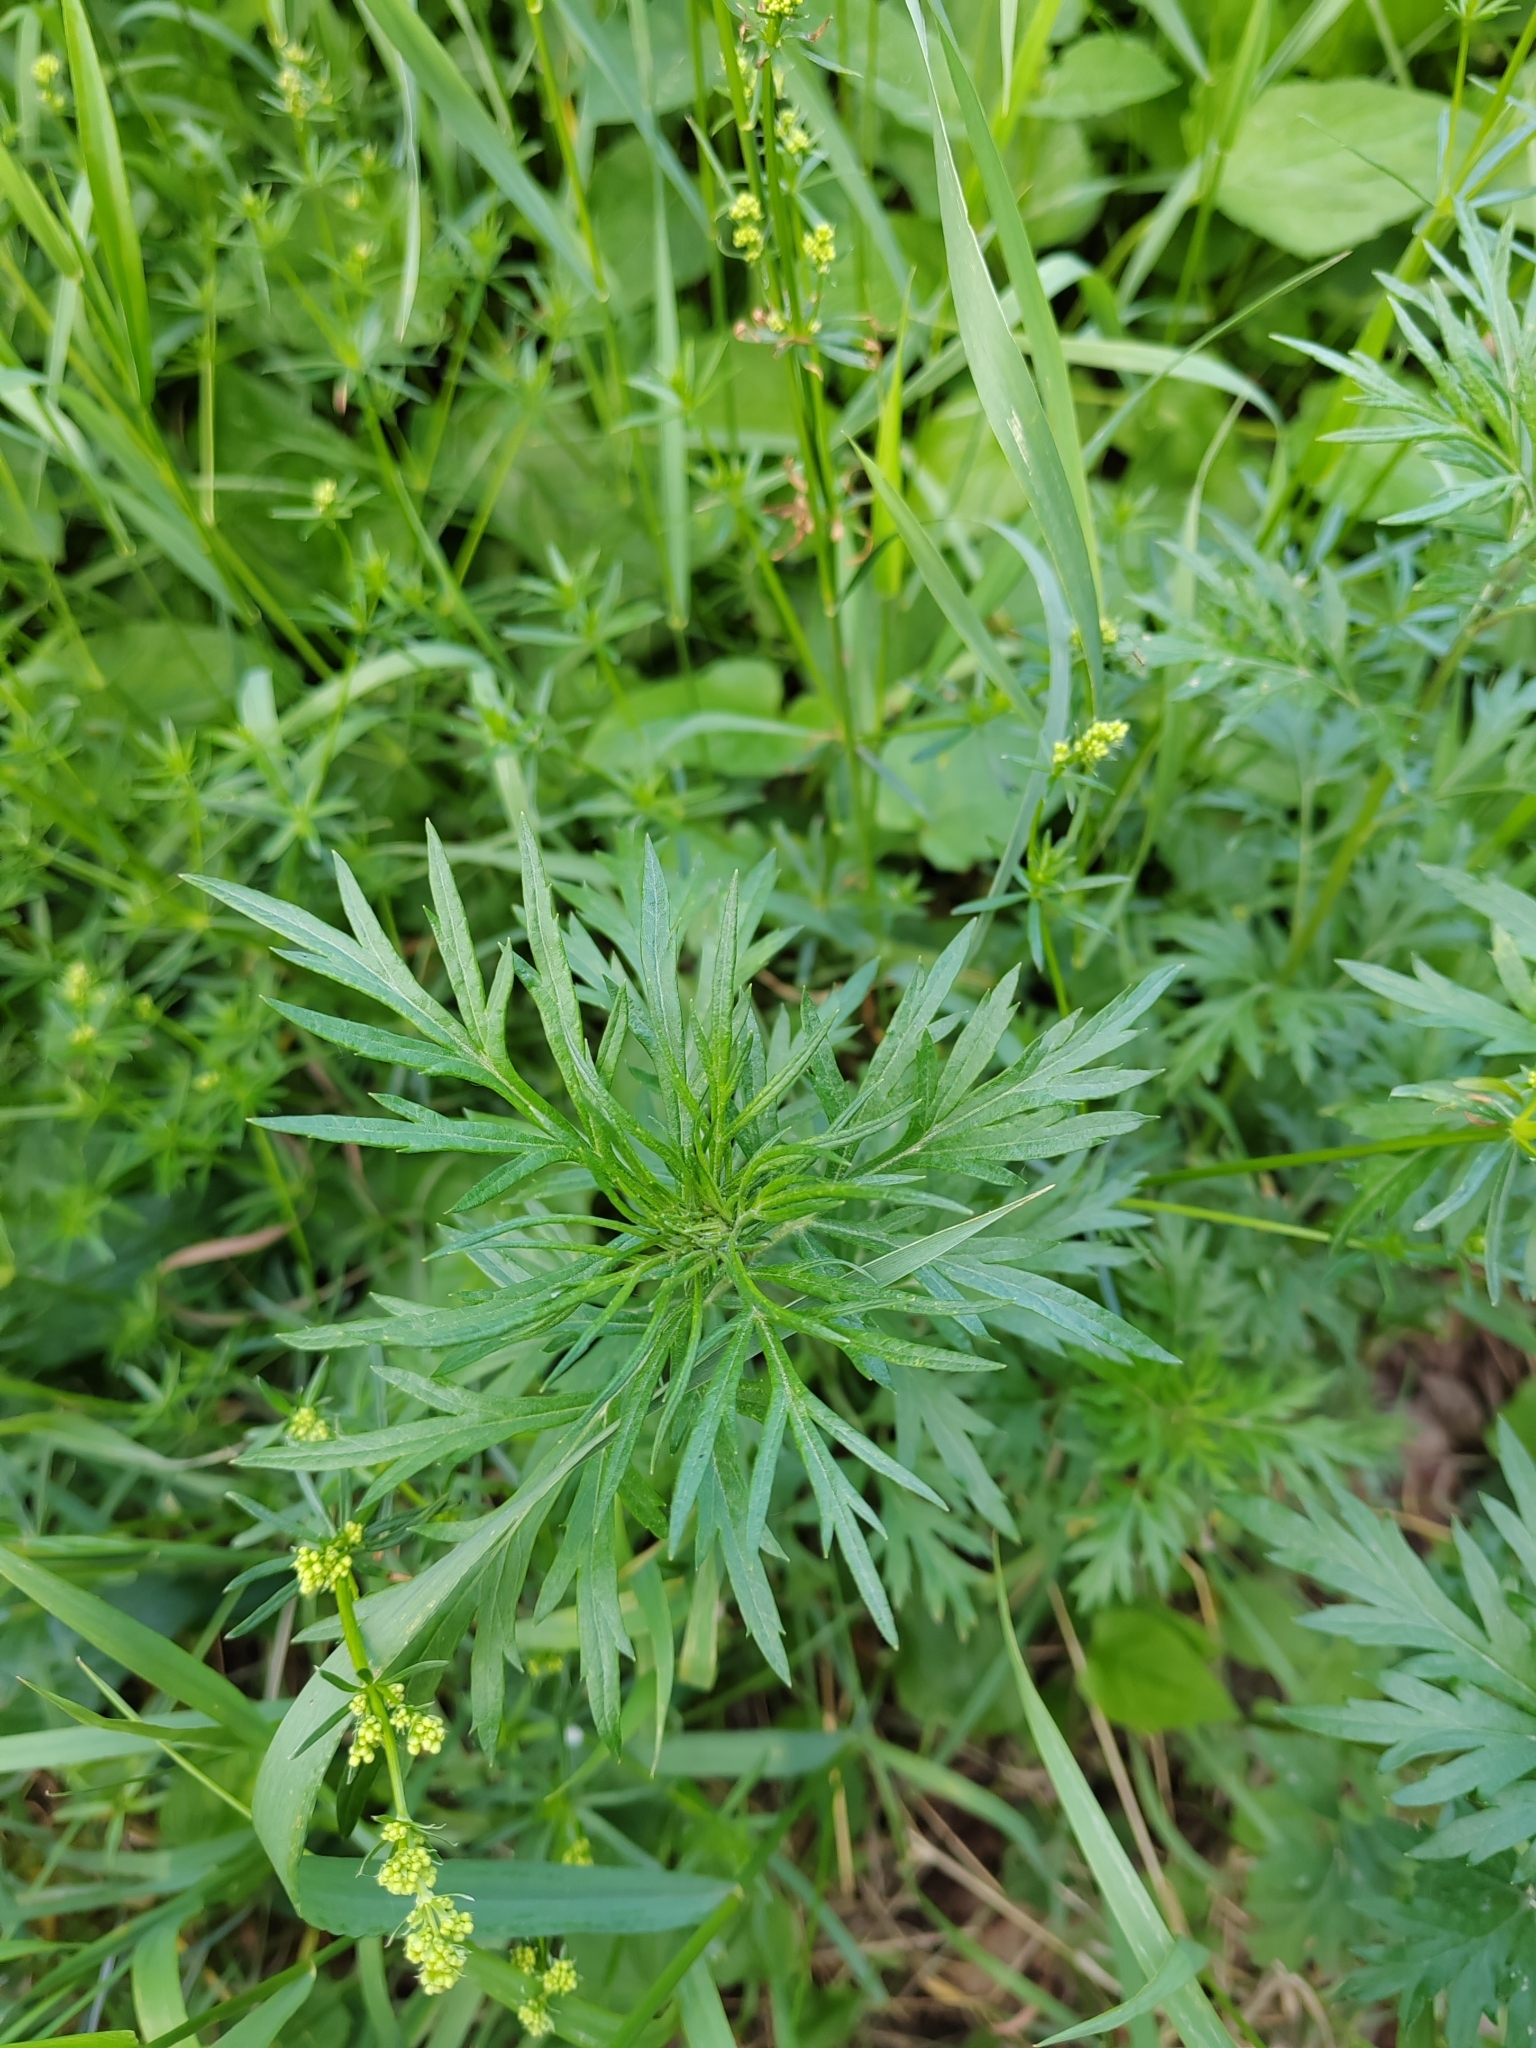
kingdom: Plantae
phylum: Tracheophyta
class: Magnoliopsida
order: Asterales
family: Asteraceae
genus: Artemisia
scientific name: Artemisia vulgaris
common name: Mugwort
